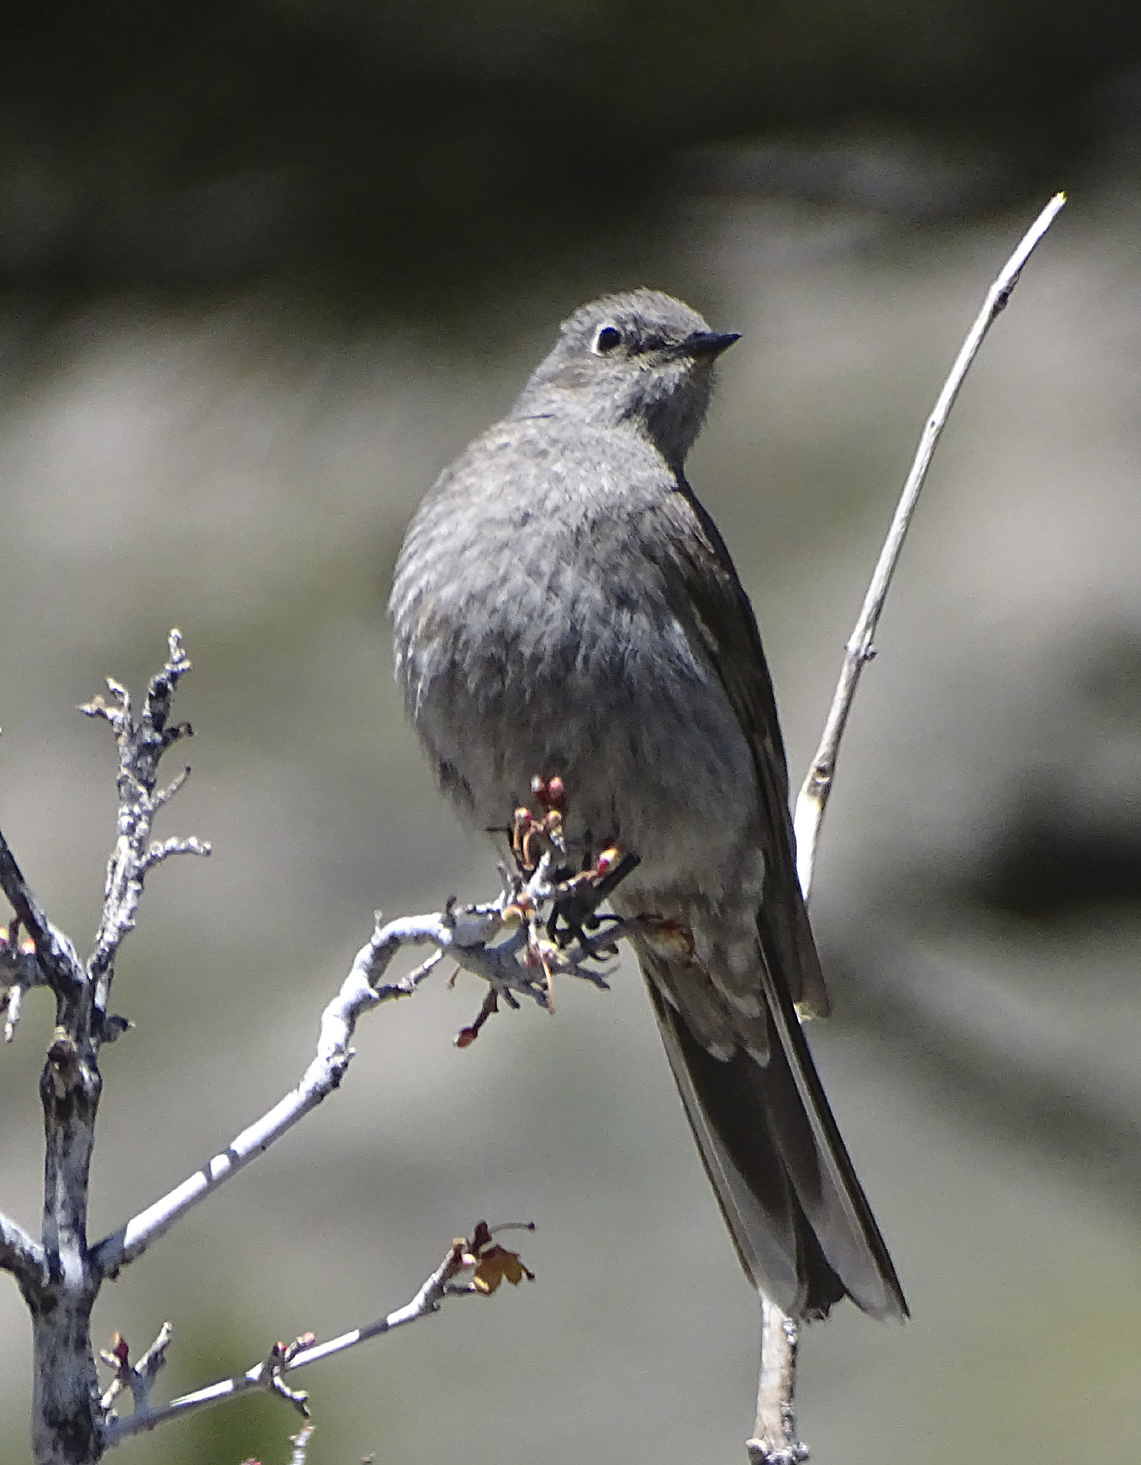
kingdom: Animalia
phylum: Chordata
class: Aves
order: Passeriformes
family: Turdidae
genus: Myadestes
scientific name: Myadestes townsendi
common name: Townsend's solitaire
